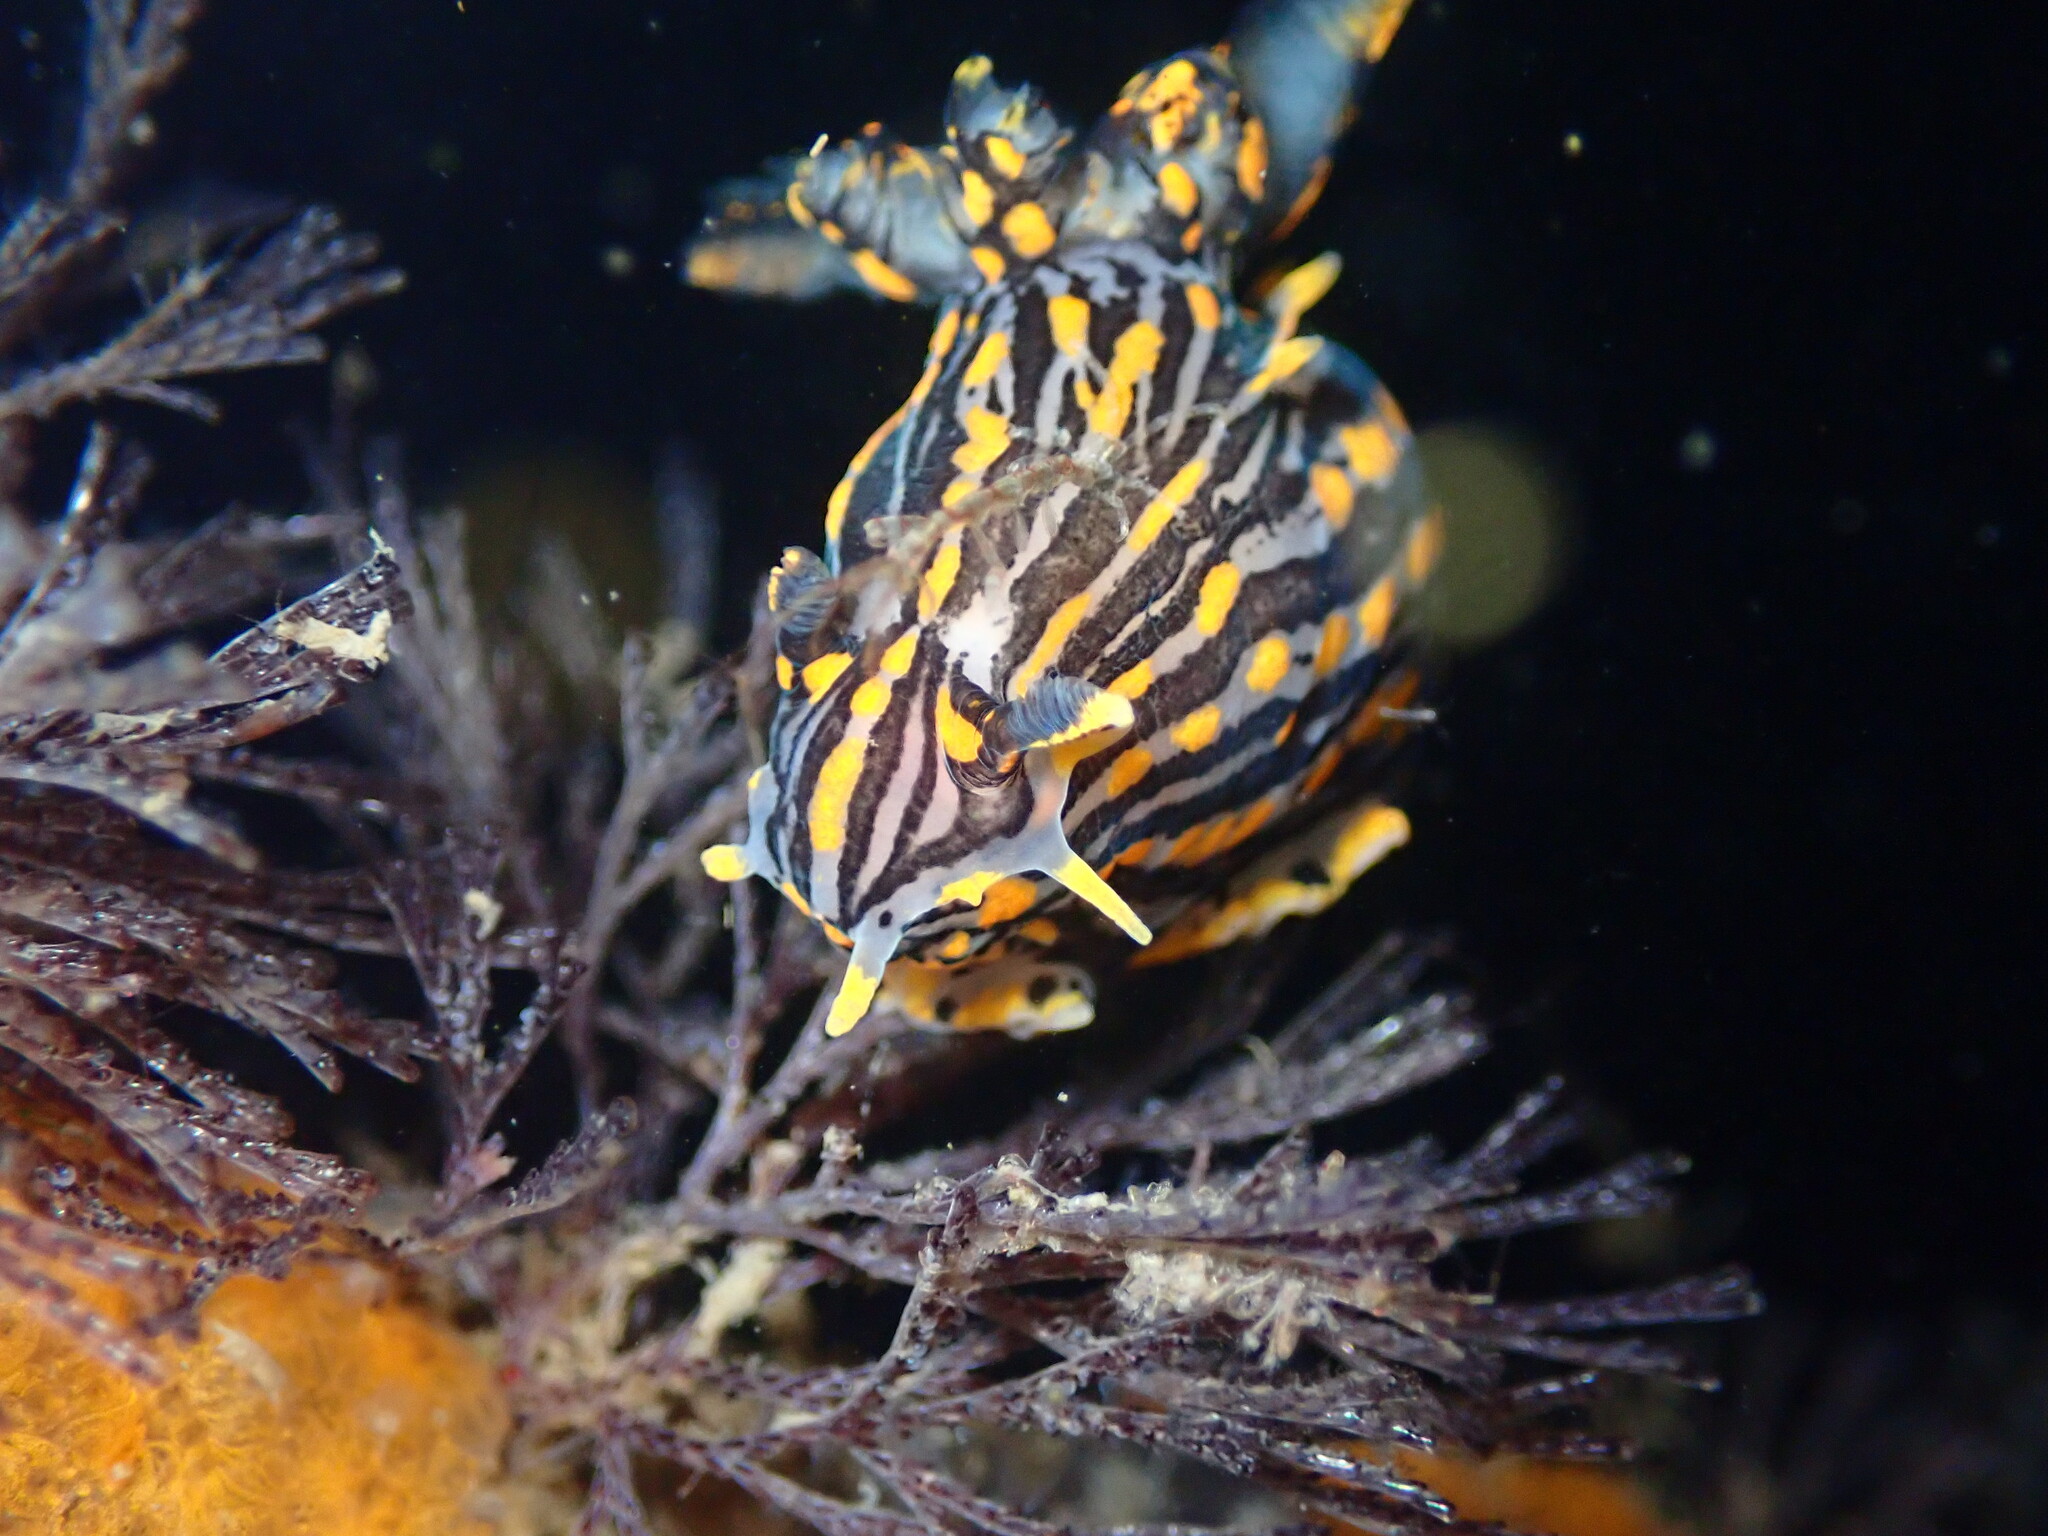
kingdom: Animalia
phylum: Mollusca
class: Gastropoda
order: Nudibranchia
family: Polyceridae
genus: Polycera
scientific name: Polycera atra
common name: Orange-spike polycera
